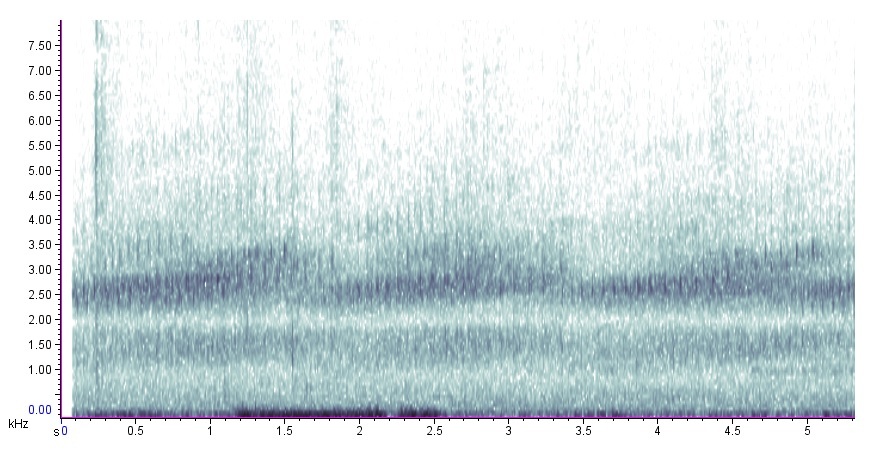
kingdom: Animalia
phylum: Chordata
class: Amphibia
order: Anura
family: Hylidae
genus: Pseudacris
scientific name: Pseudacris feriarum
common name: Upland chorus frog
